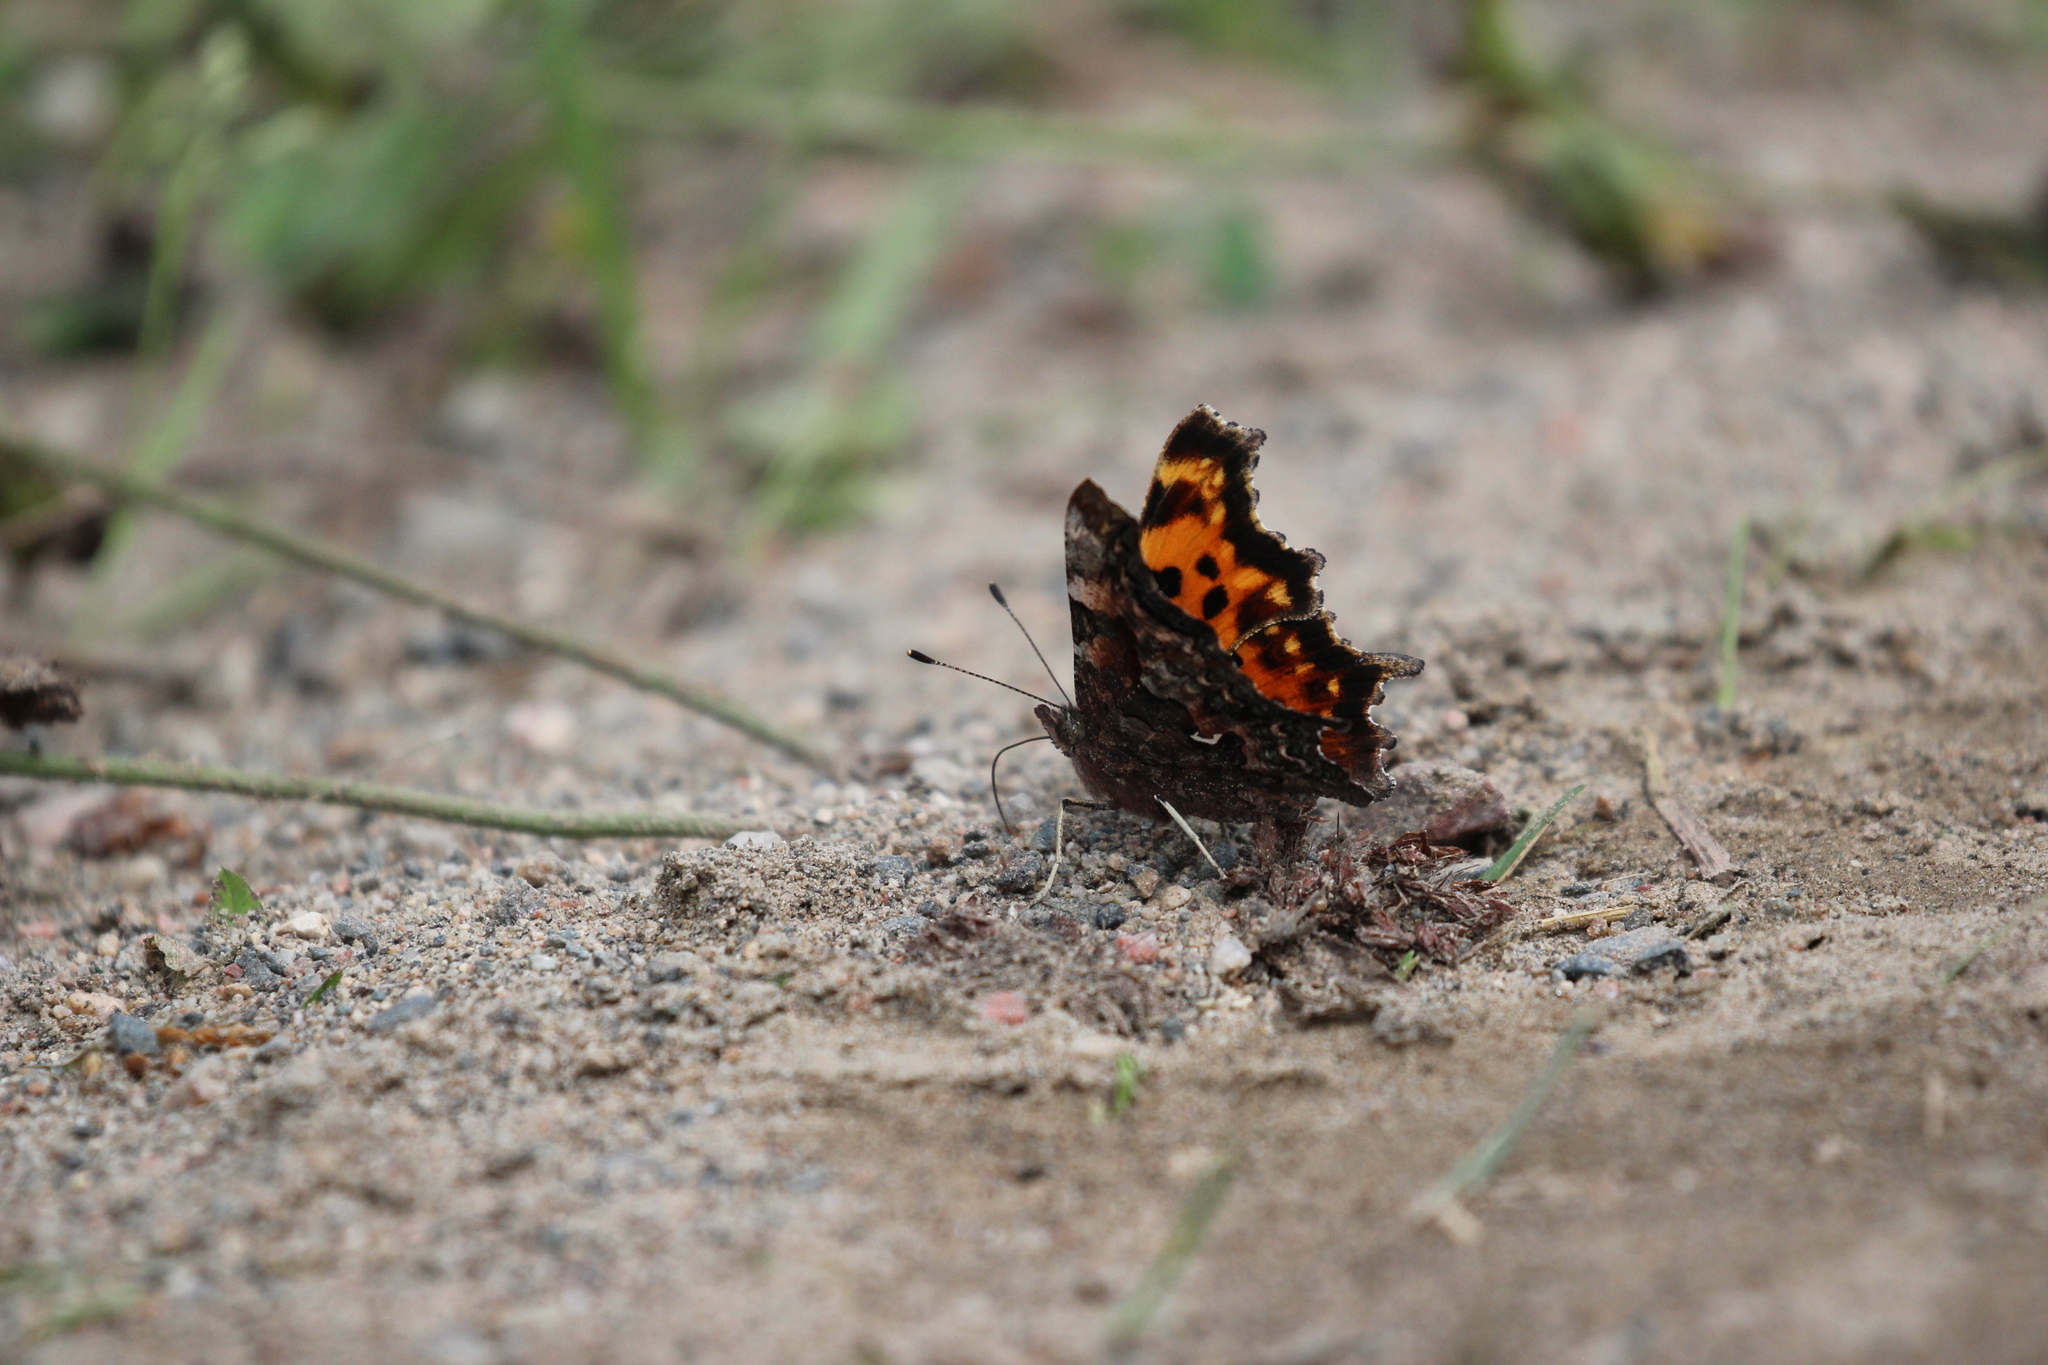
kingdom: Animalia
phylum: Arthropoda
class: Insecta
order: Lepidoptera
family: Nymphalidae
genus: Polygonia
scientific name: Polygonia faunus
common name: Green comma
